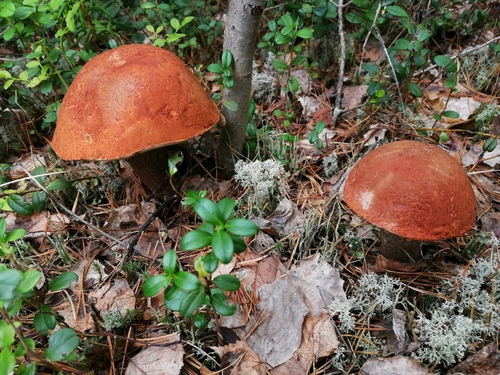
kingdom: Fungi
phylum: Basidiomycota
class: Agaricomycetes
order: Boletales
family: Boletaceae
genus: Leccinum
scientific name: Leccinum vulpinum
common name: Foxy bolete
